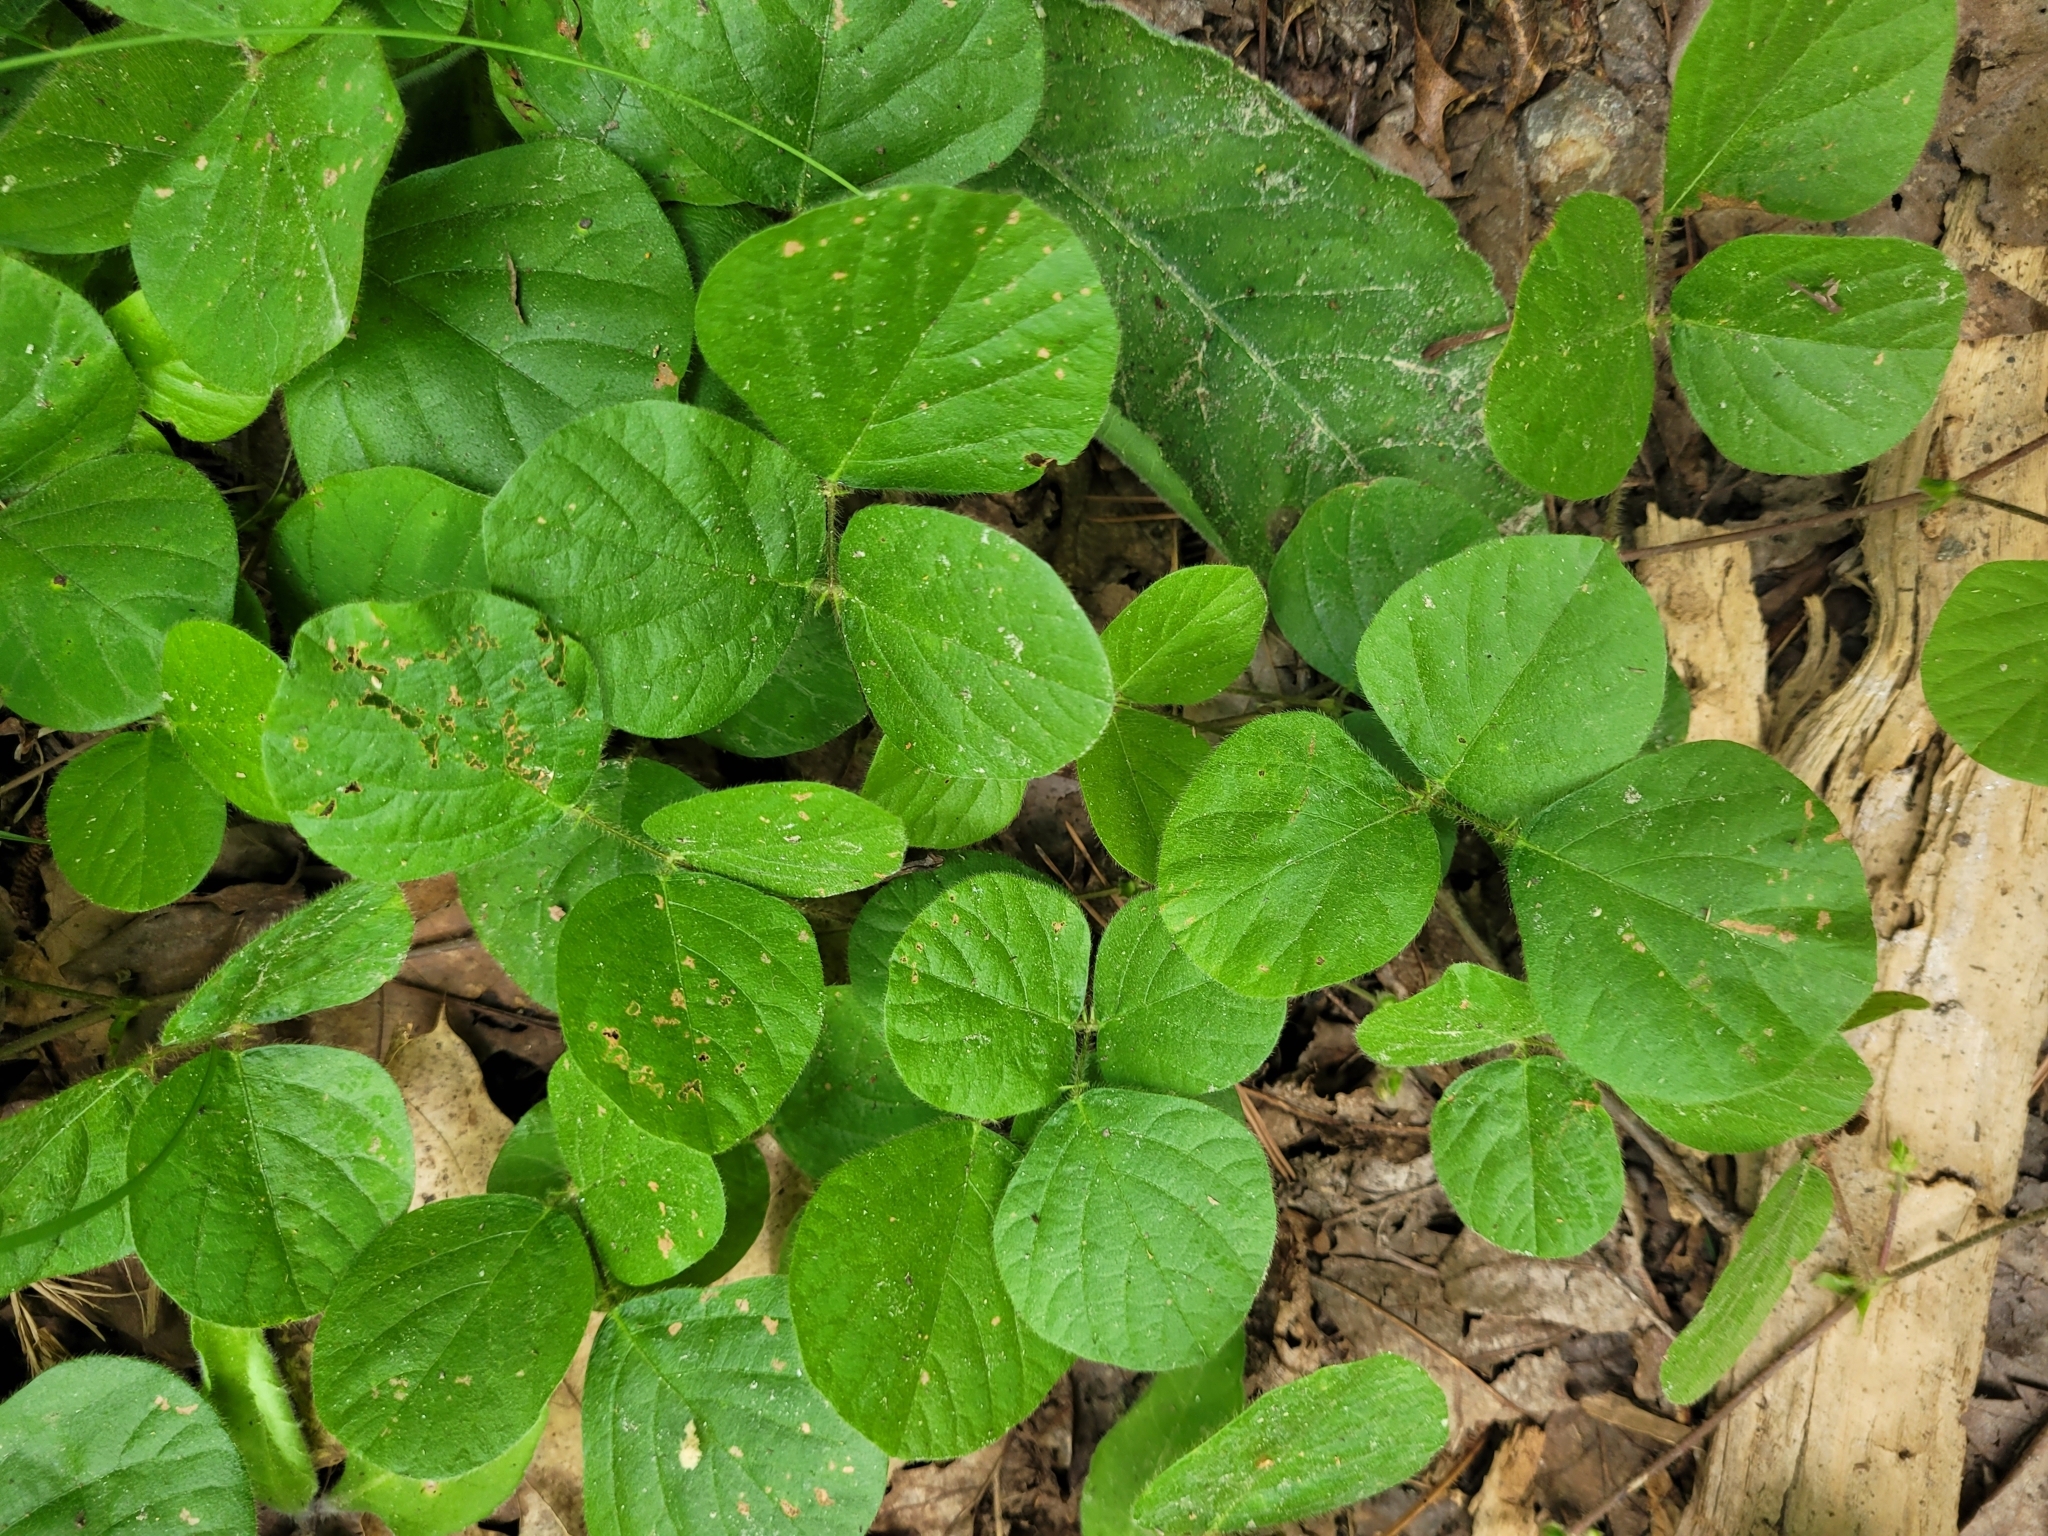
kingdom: Plantae
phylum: Tracheophyta
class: Magnoliopsida
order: Fabales
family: Fabaceae
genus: Desmodium
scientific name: Desmodium rotundifolium
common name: Dollarleaf
